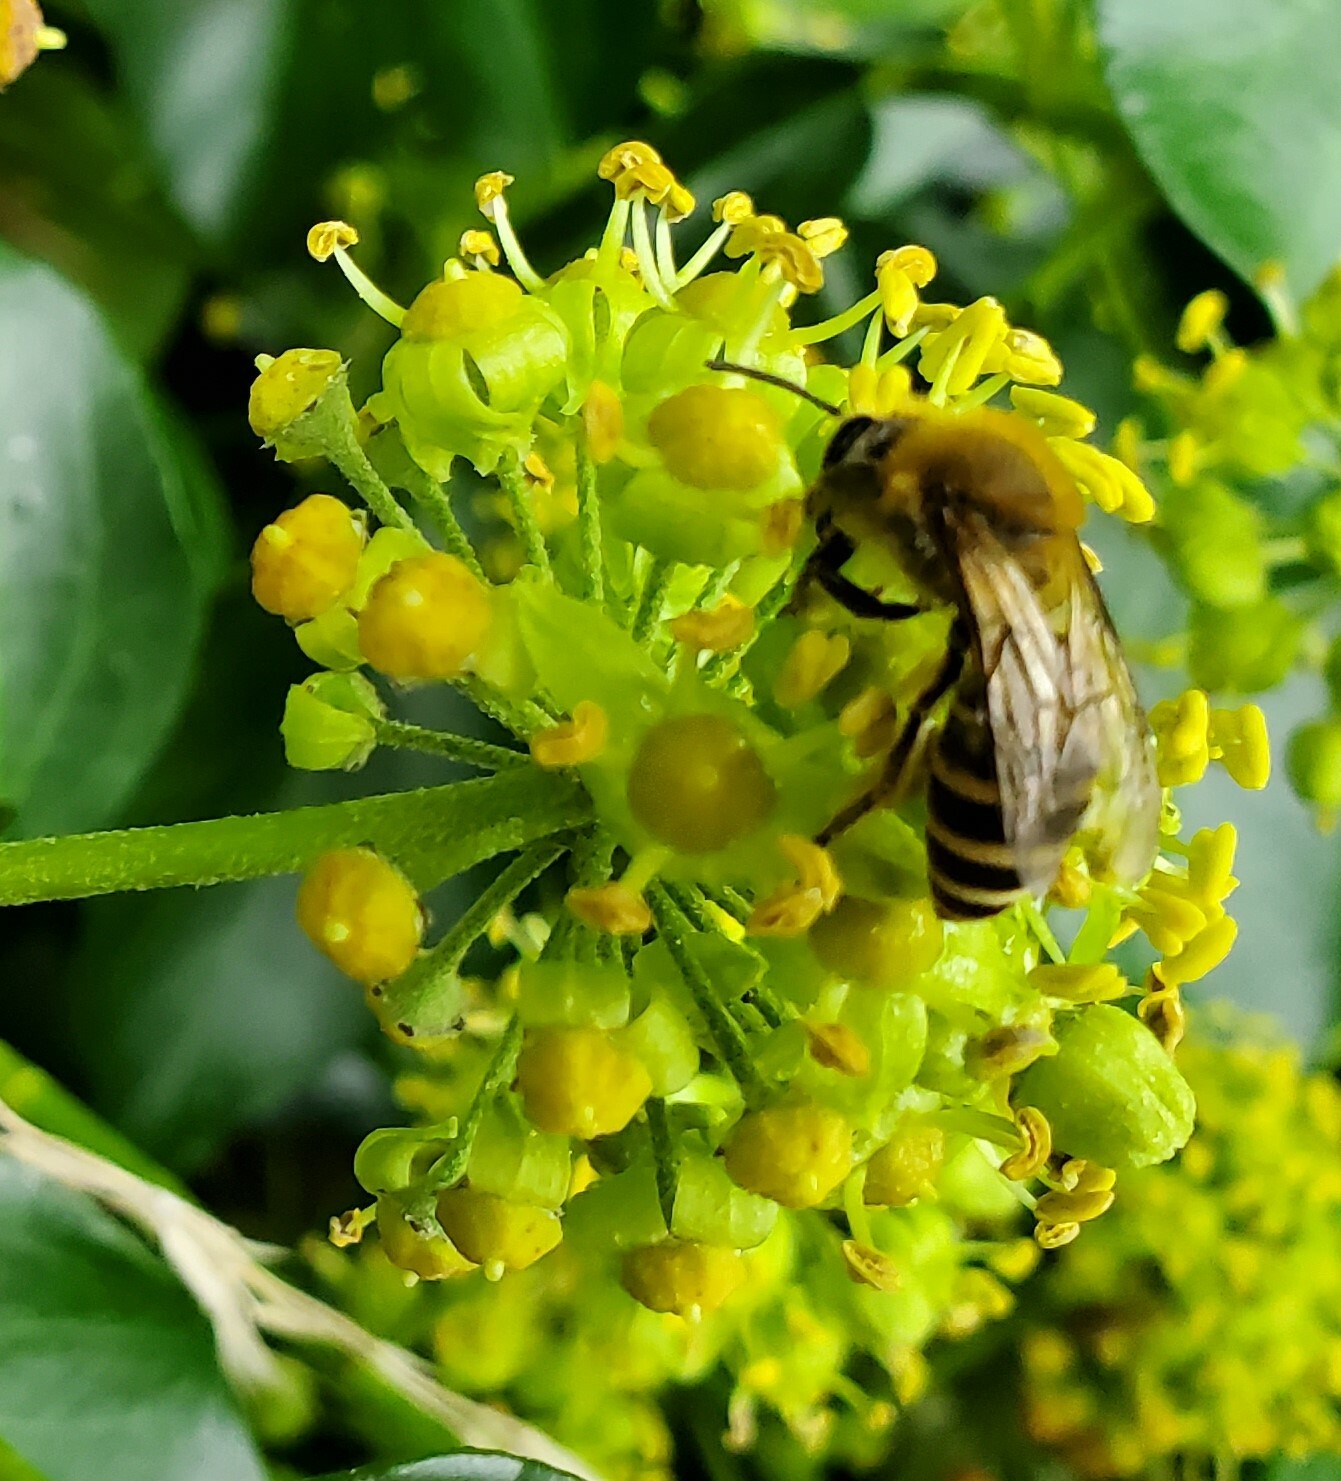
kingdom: Animalia
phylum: Arthropoda
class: Insecta
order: Hymenoptera
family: Colletidae
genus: Colletes
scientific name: Colletes hederae
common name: Ivy bee
